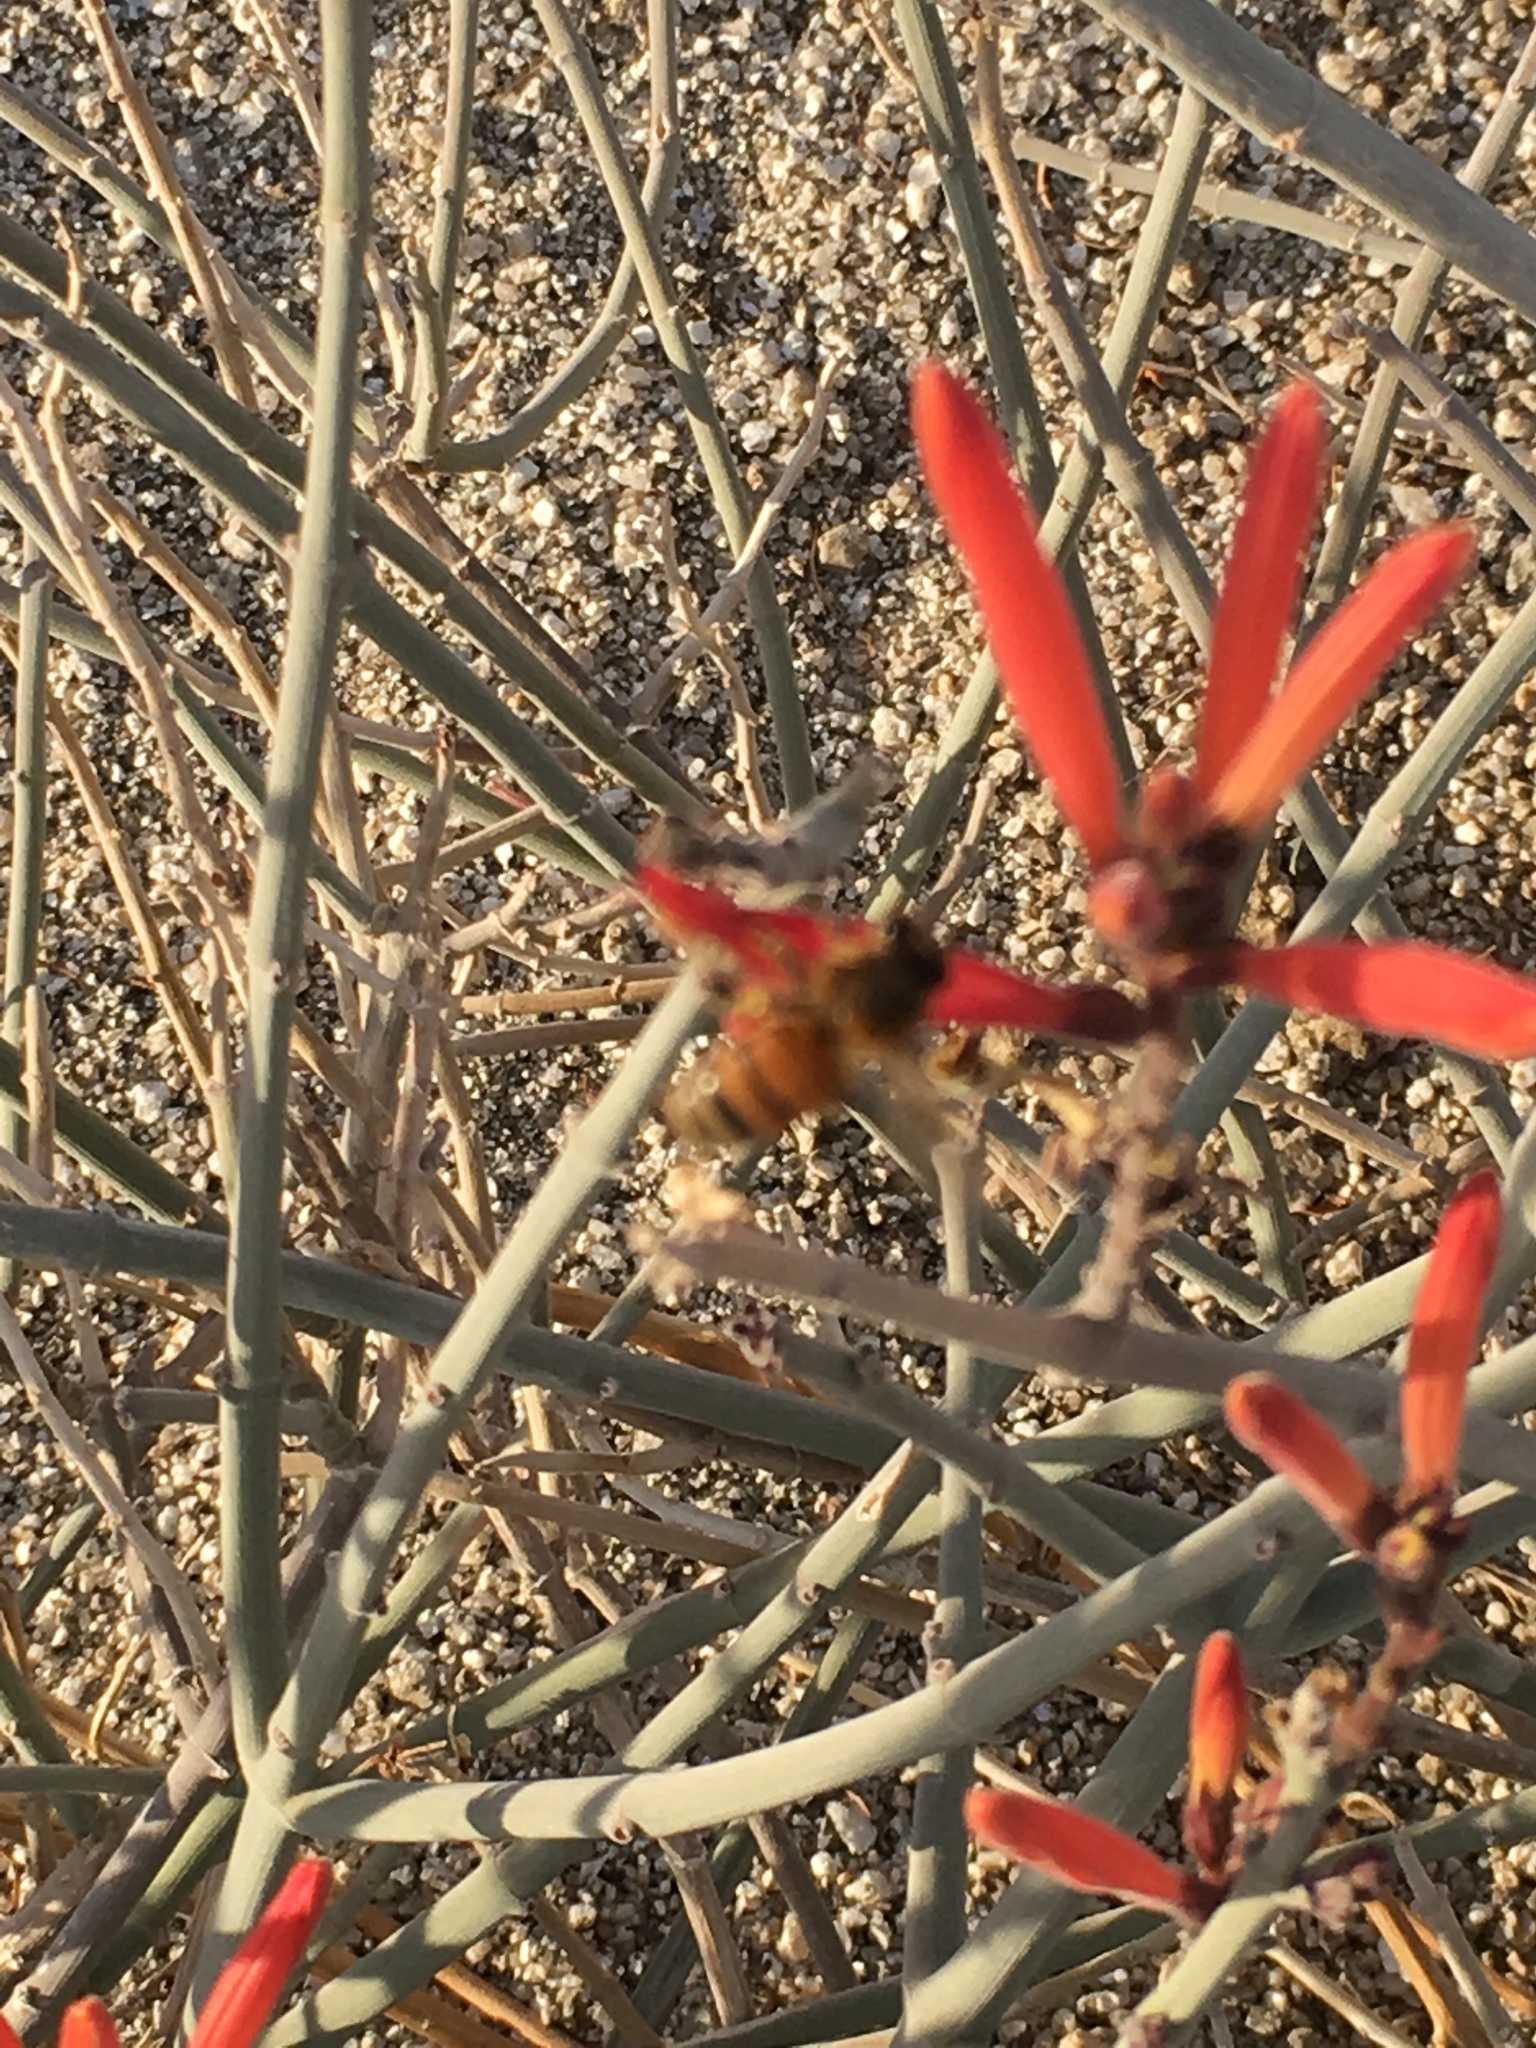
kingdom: Animalia
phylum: Arthropoda
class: Insecta
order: Hymenoptera
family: Apidae
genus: Apis
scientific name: Apis mellifera
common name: Honey bee
